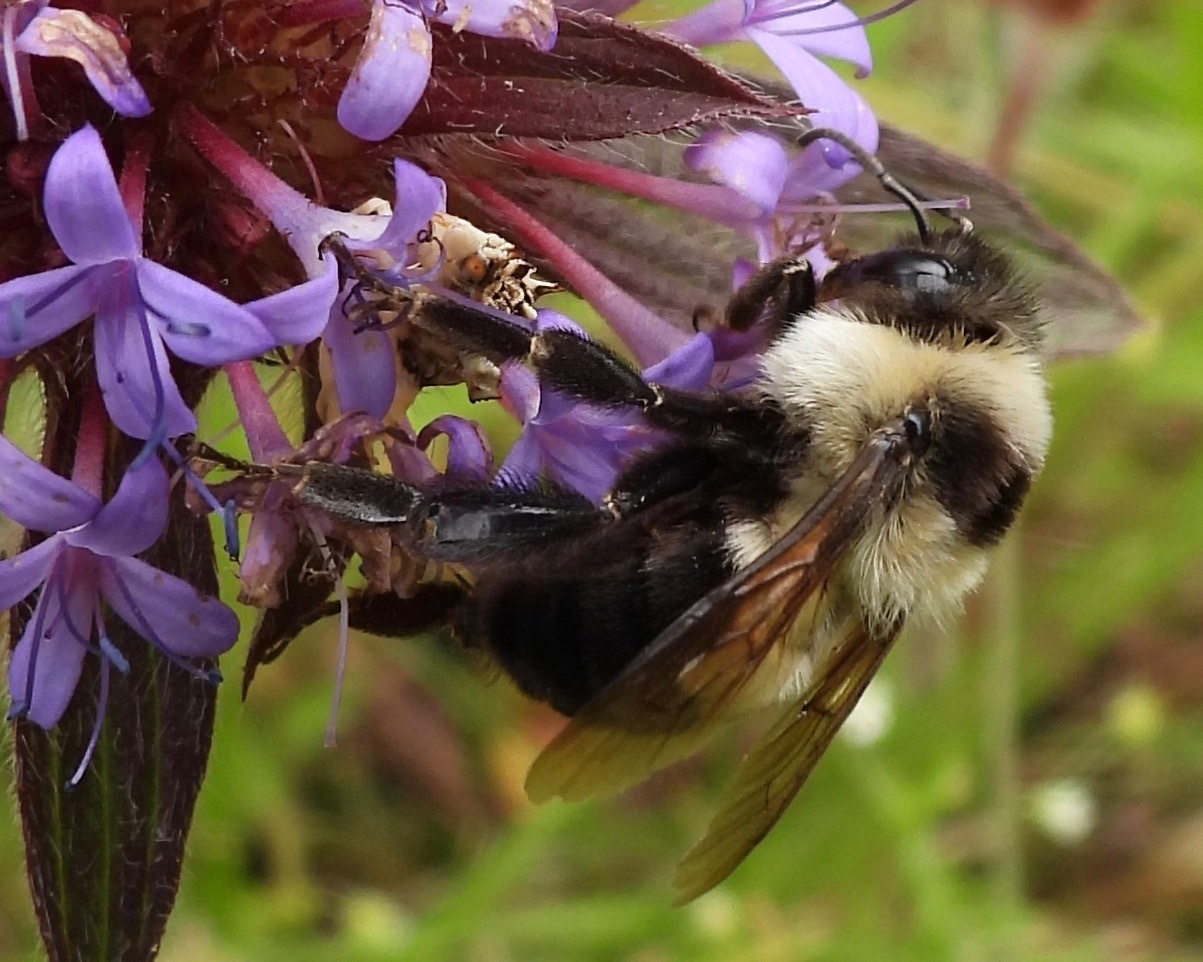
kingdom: Animalia
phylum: Arthropoda
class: Insecta
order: Hymenoptera
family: Apidae
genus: Bombus
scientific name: Bombus wilmattae
